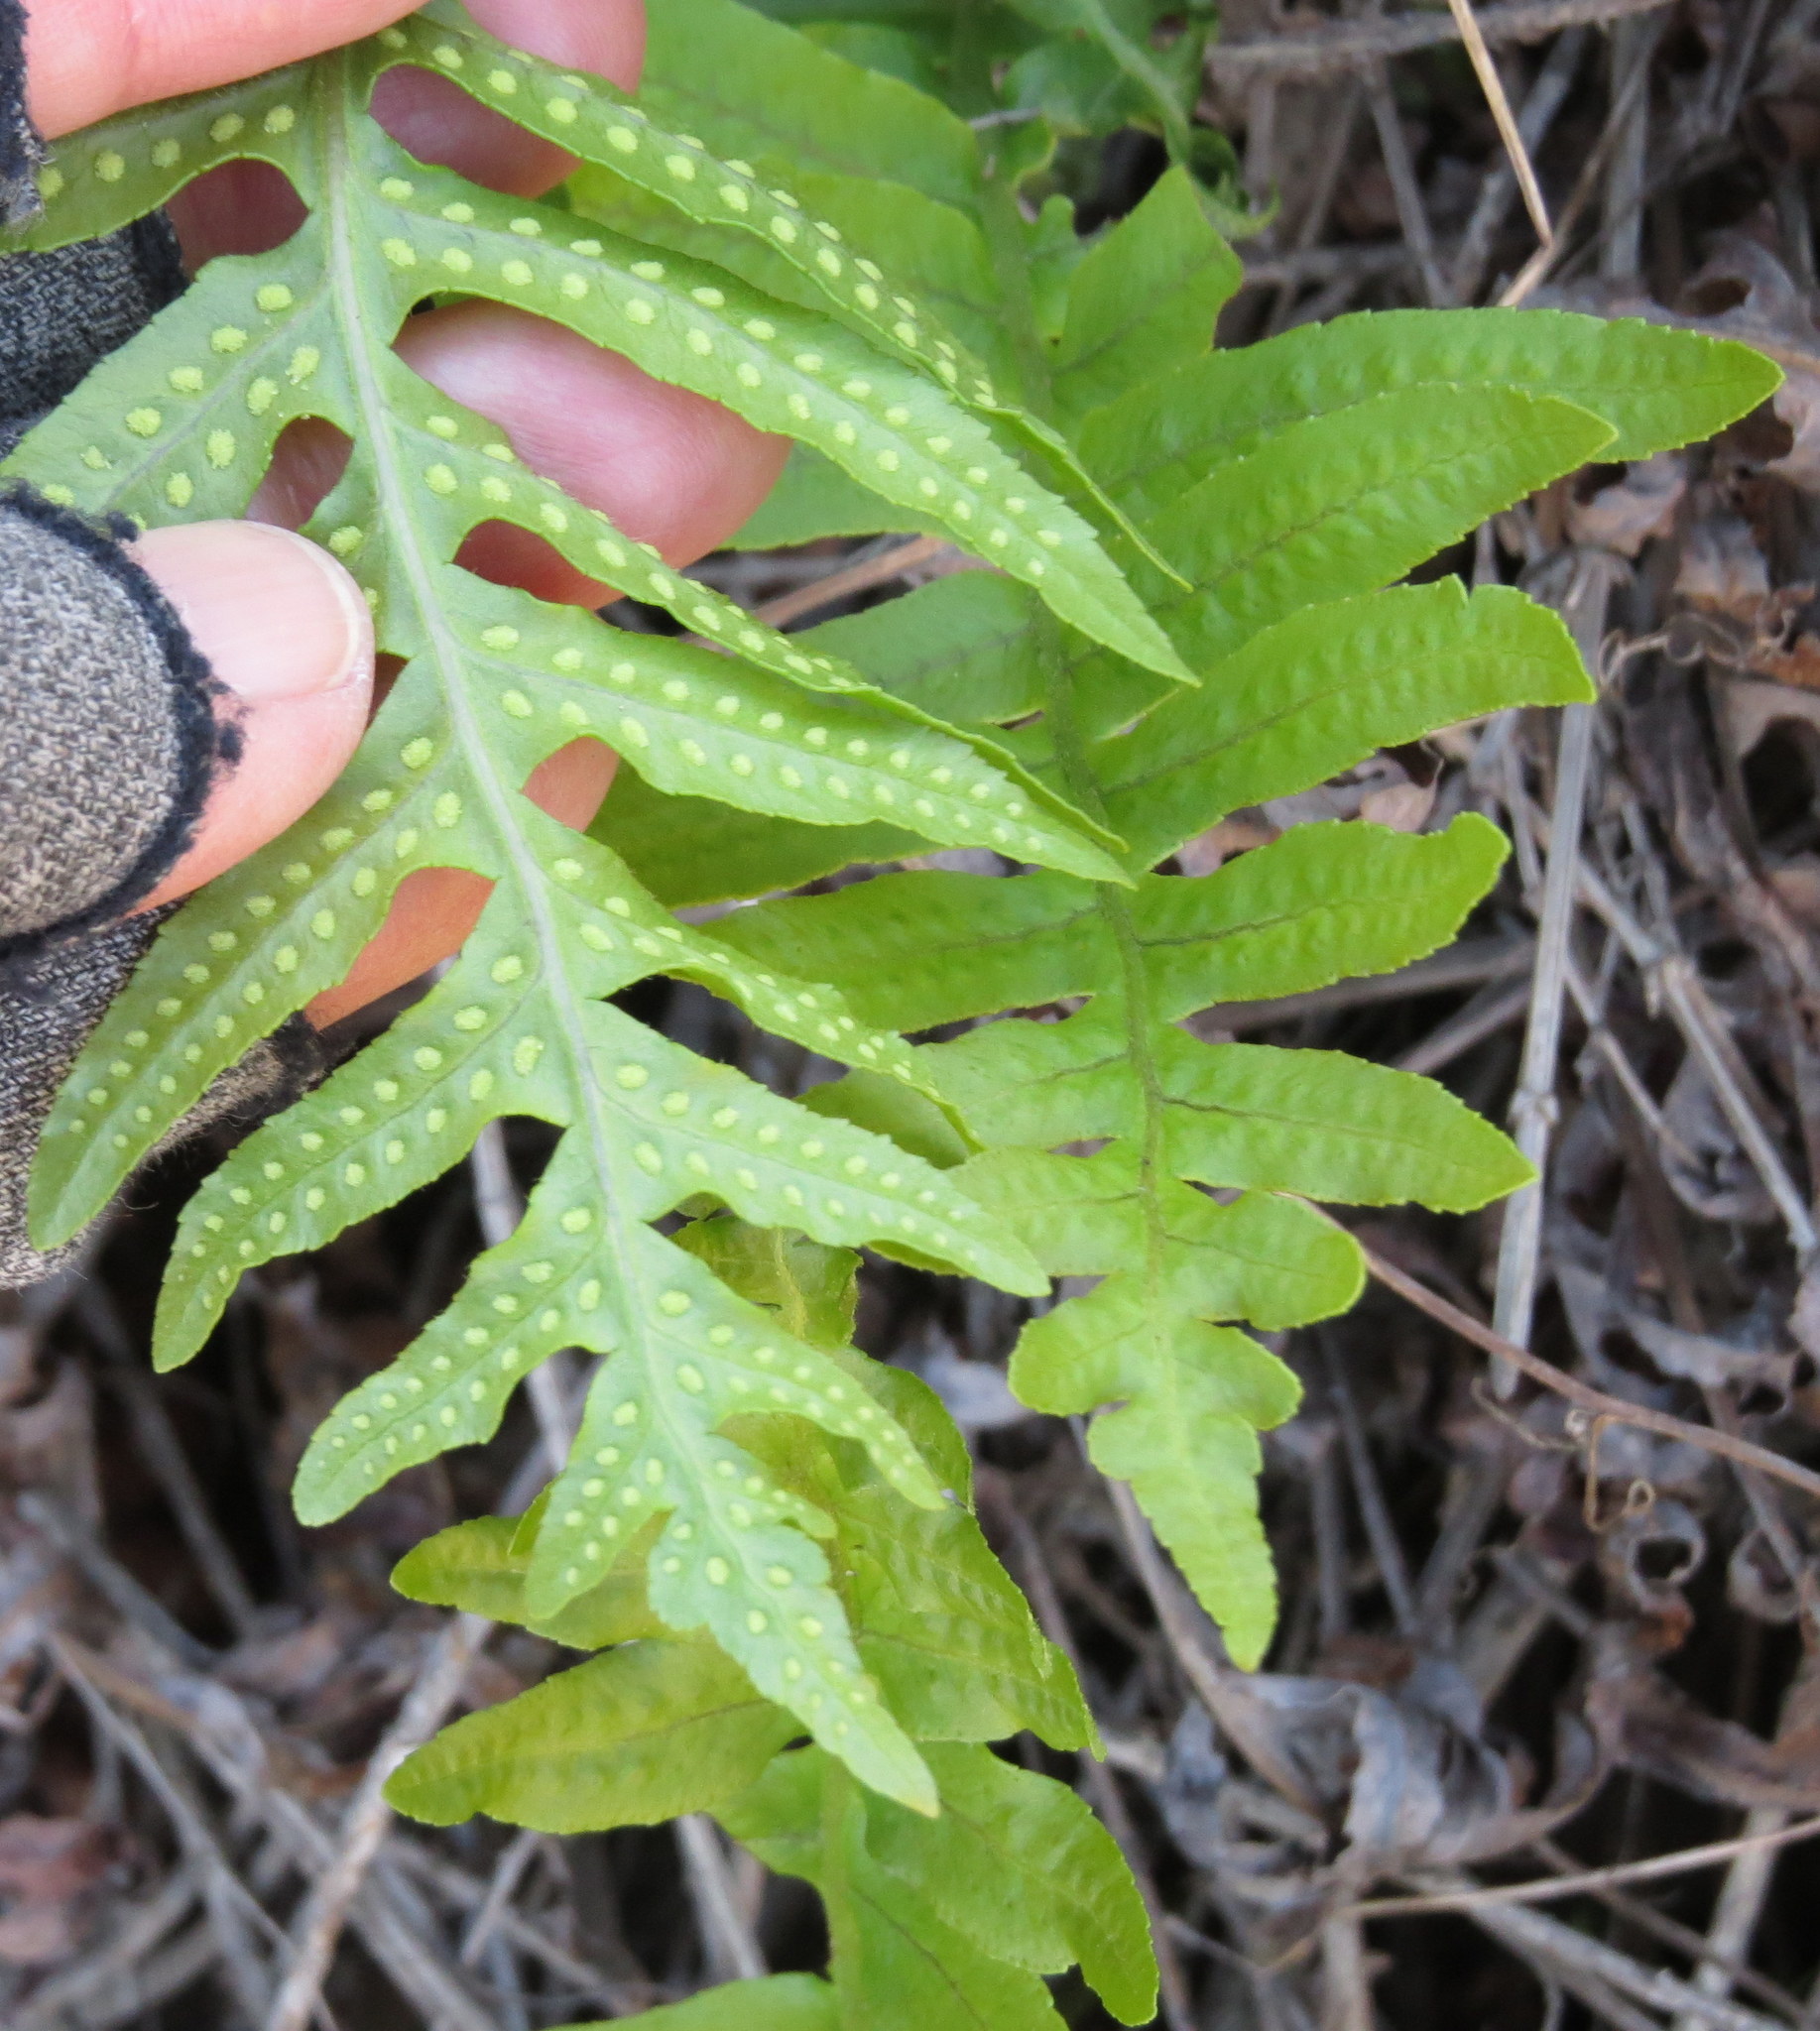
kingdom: Plantae
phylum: Tracheophyta
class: Polypodiopsida
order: Polypodiales
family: Polypodiaceae
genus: Polypodium
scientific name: Polypodium californicum
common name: California polypody
